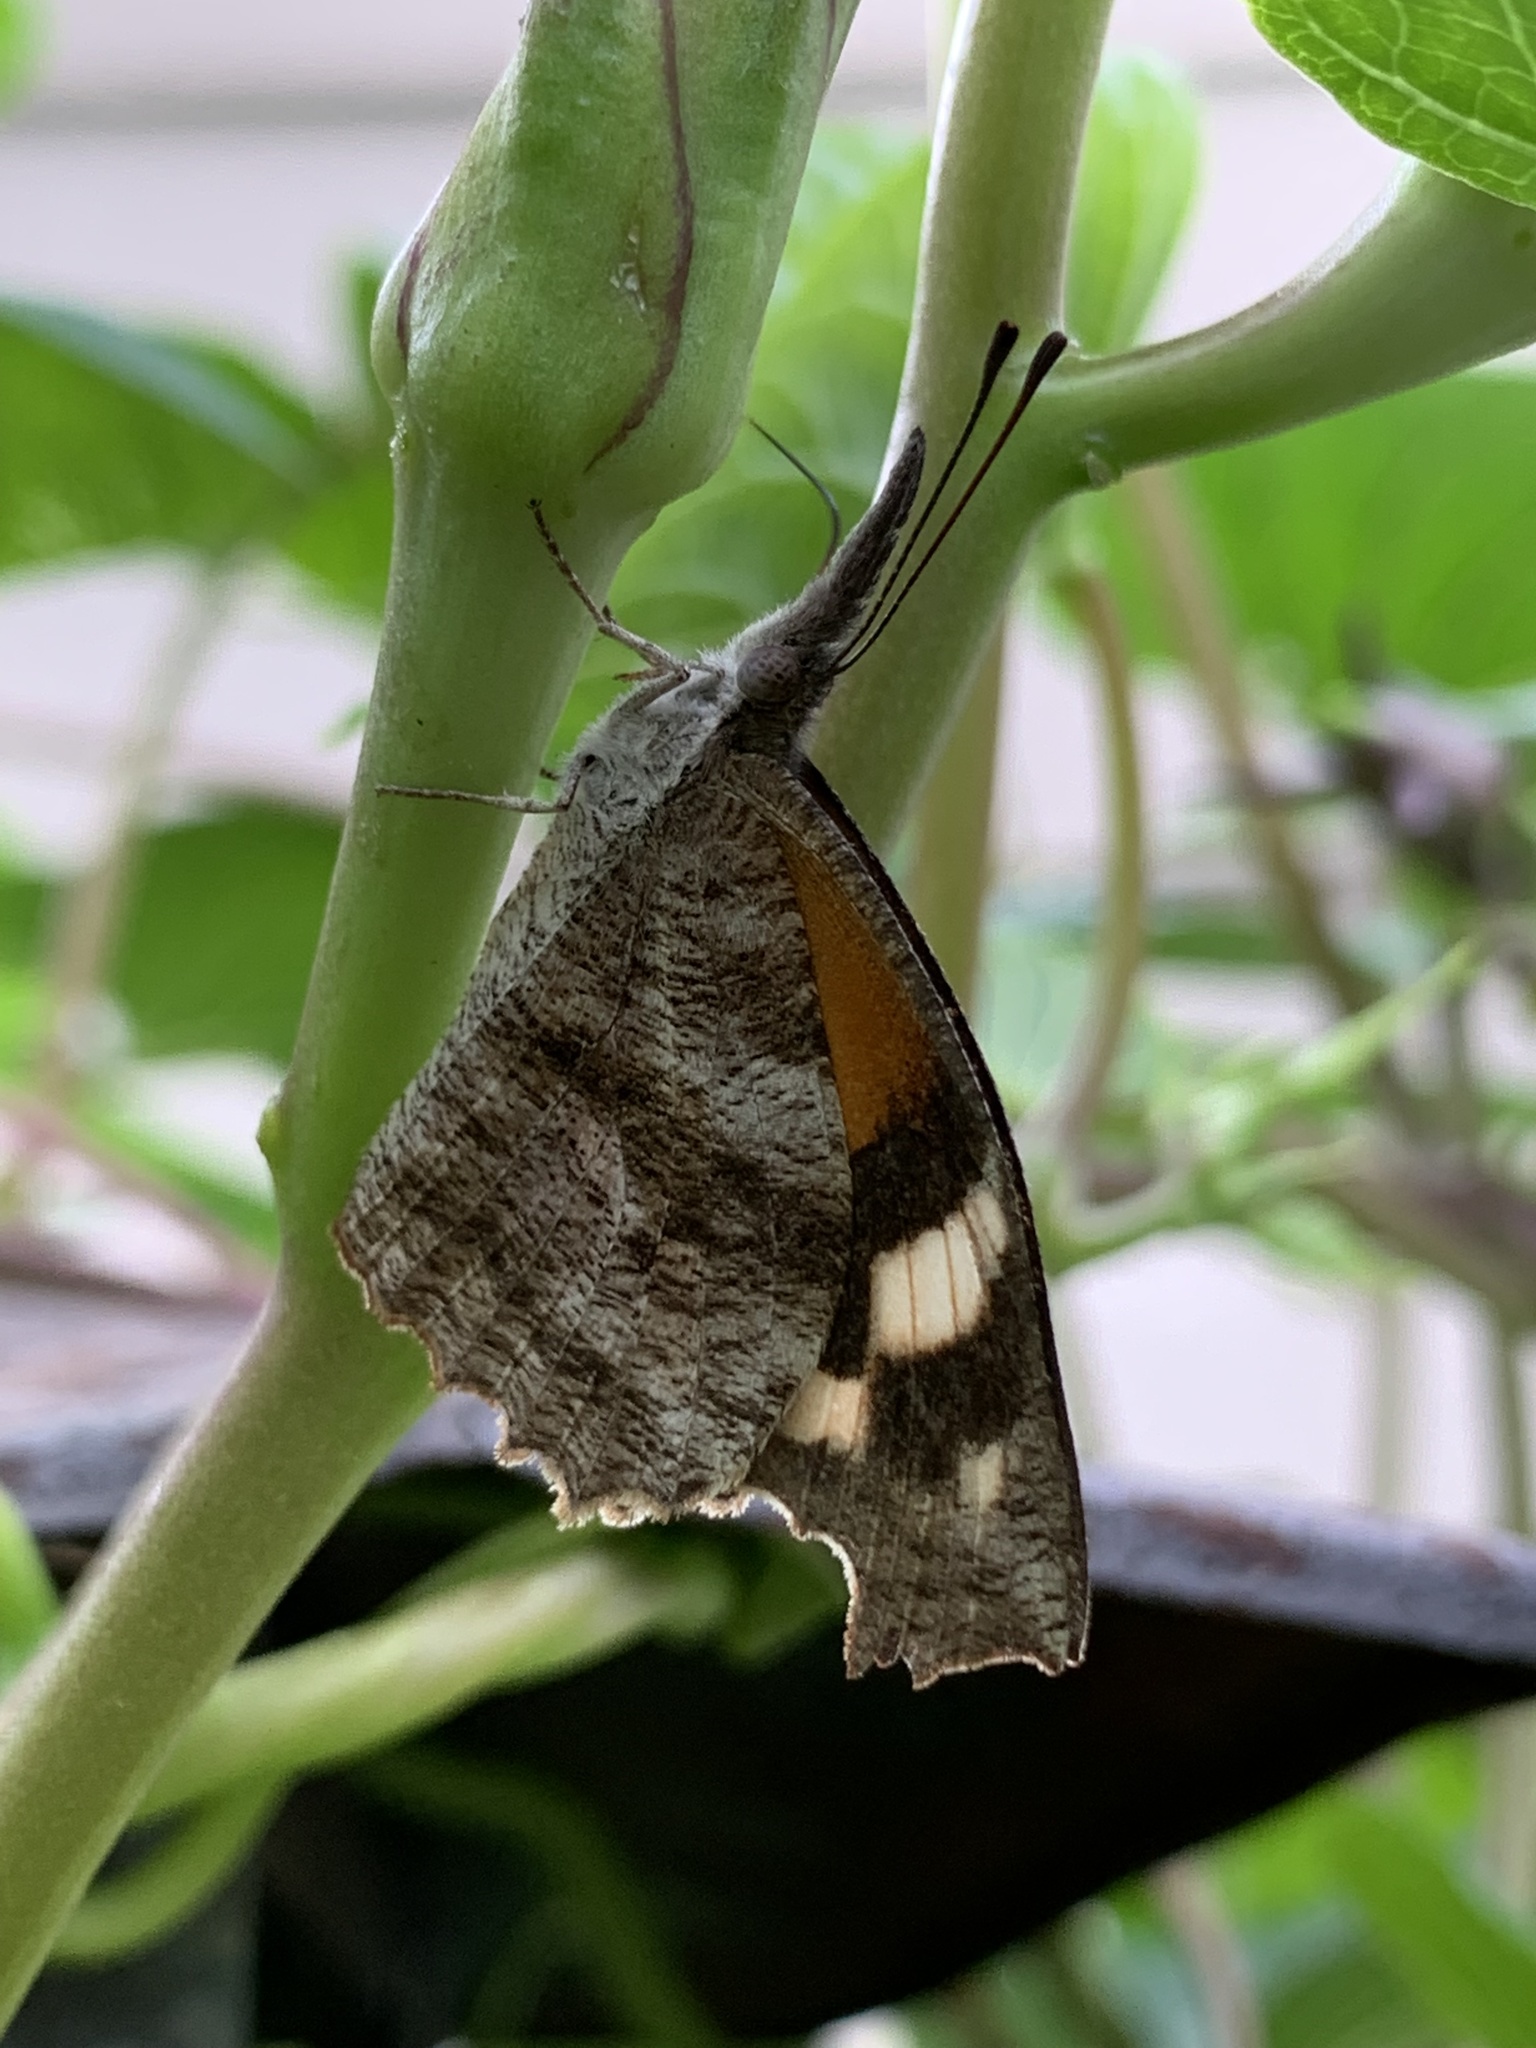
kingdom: Animalia
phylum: Arthropoda
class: Insecta
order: Lepidoptera
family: Nymphalidae
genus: Libytheana
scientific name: Libytheana carinenta
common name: American snout
